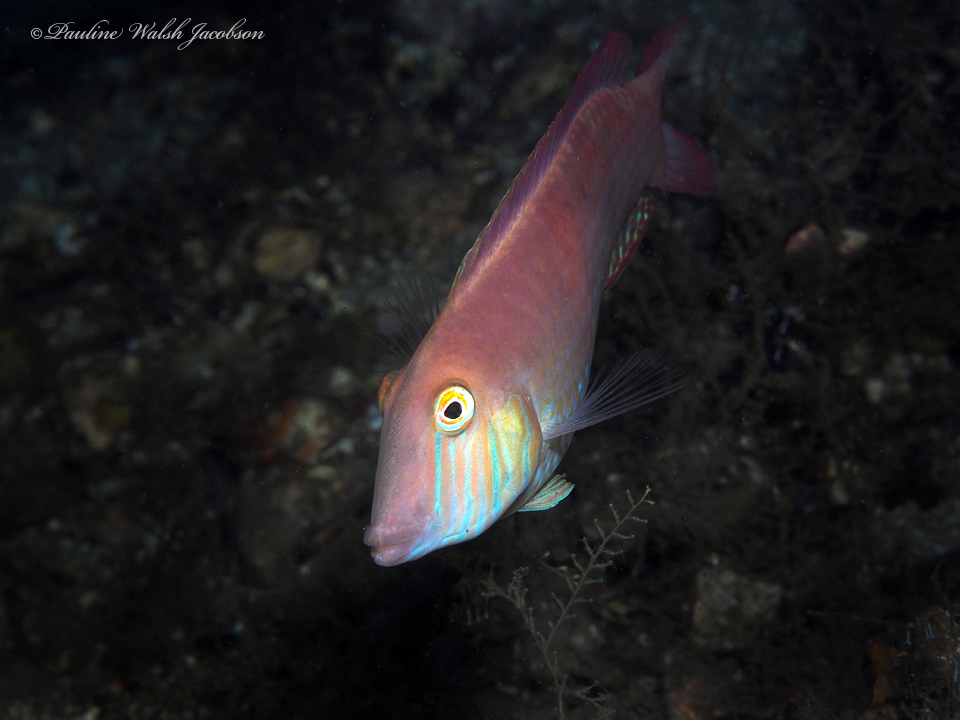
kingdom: Animalia
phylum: Chordata
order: Perciformes
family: Labridae
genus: Xyrichtys
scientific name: Xyrichtys novacula
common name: Pearly razorfish
